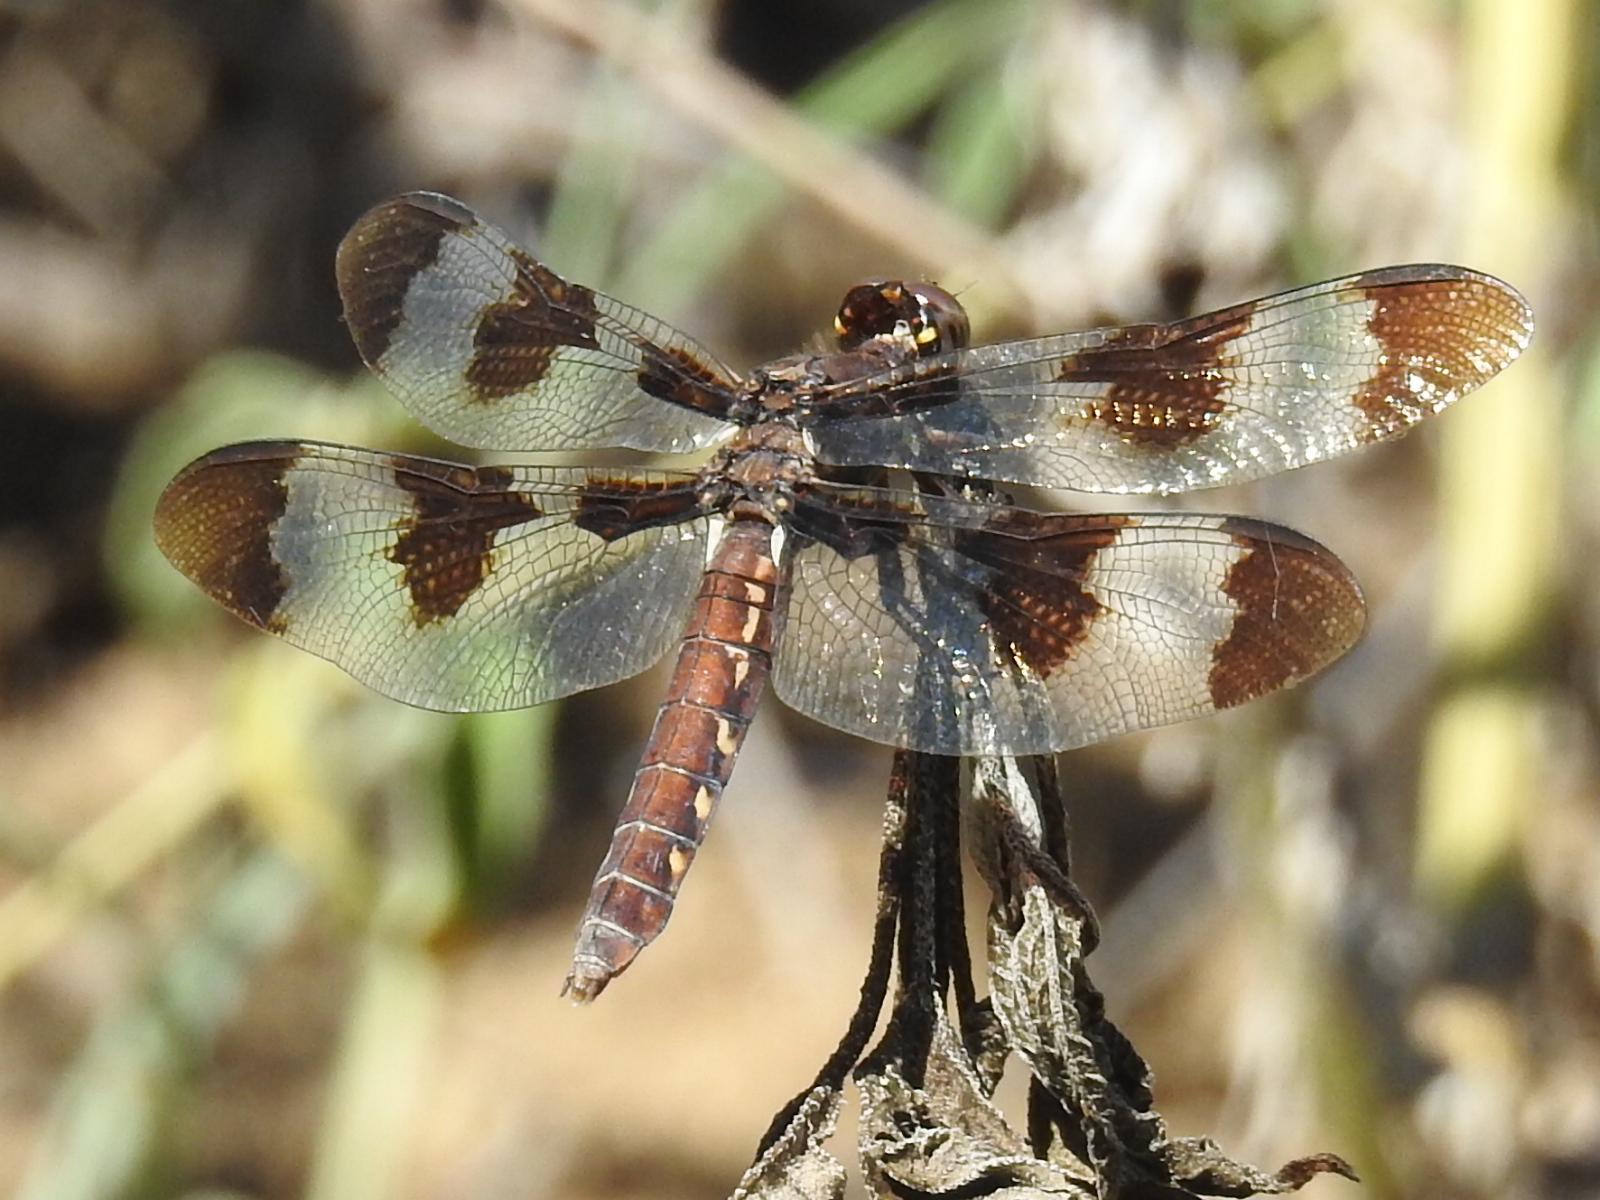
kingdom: Animalia
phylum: Arthropoda
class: Insecta
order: Odonata
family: Libellulidae
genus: Plathemis
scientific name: Plathemis lydia
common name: Common whitetail
